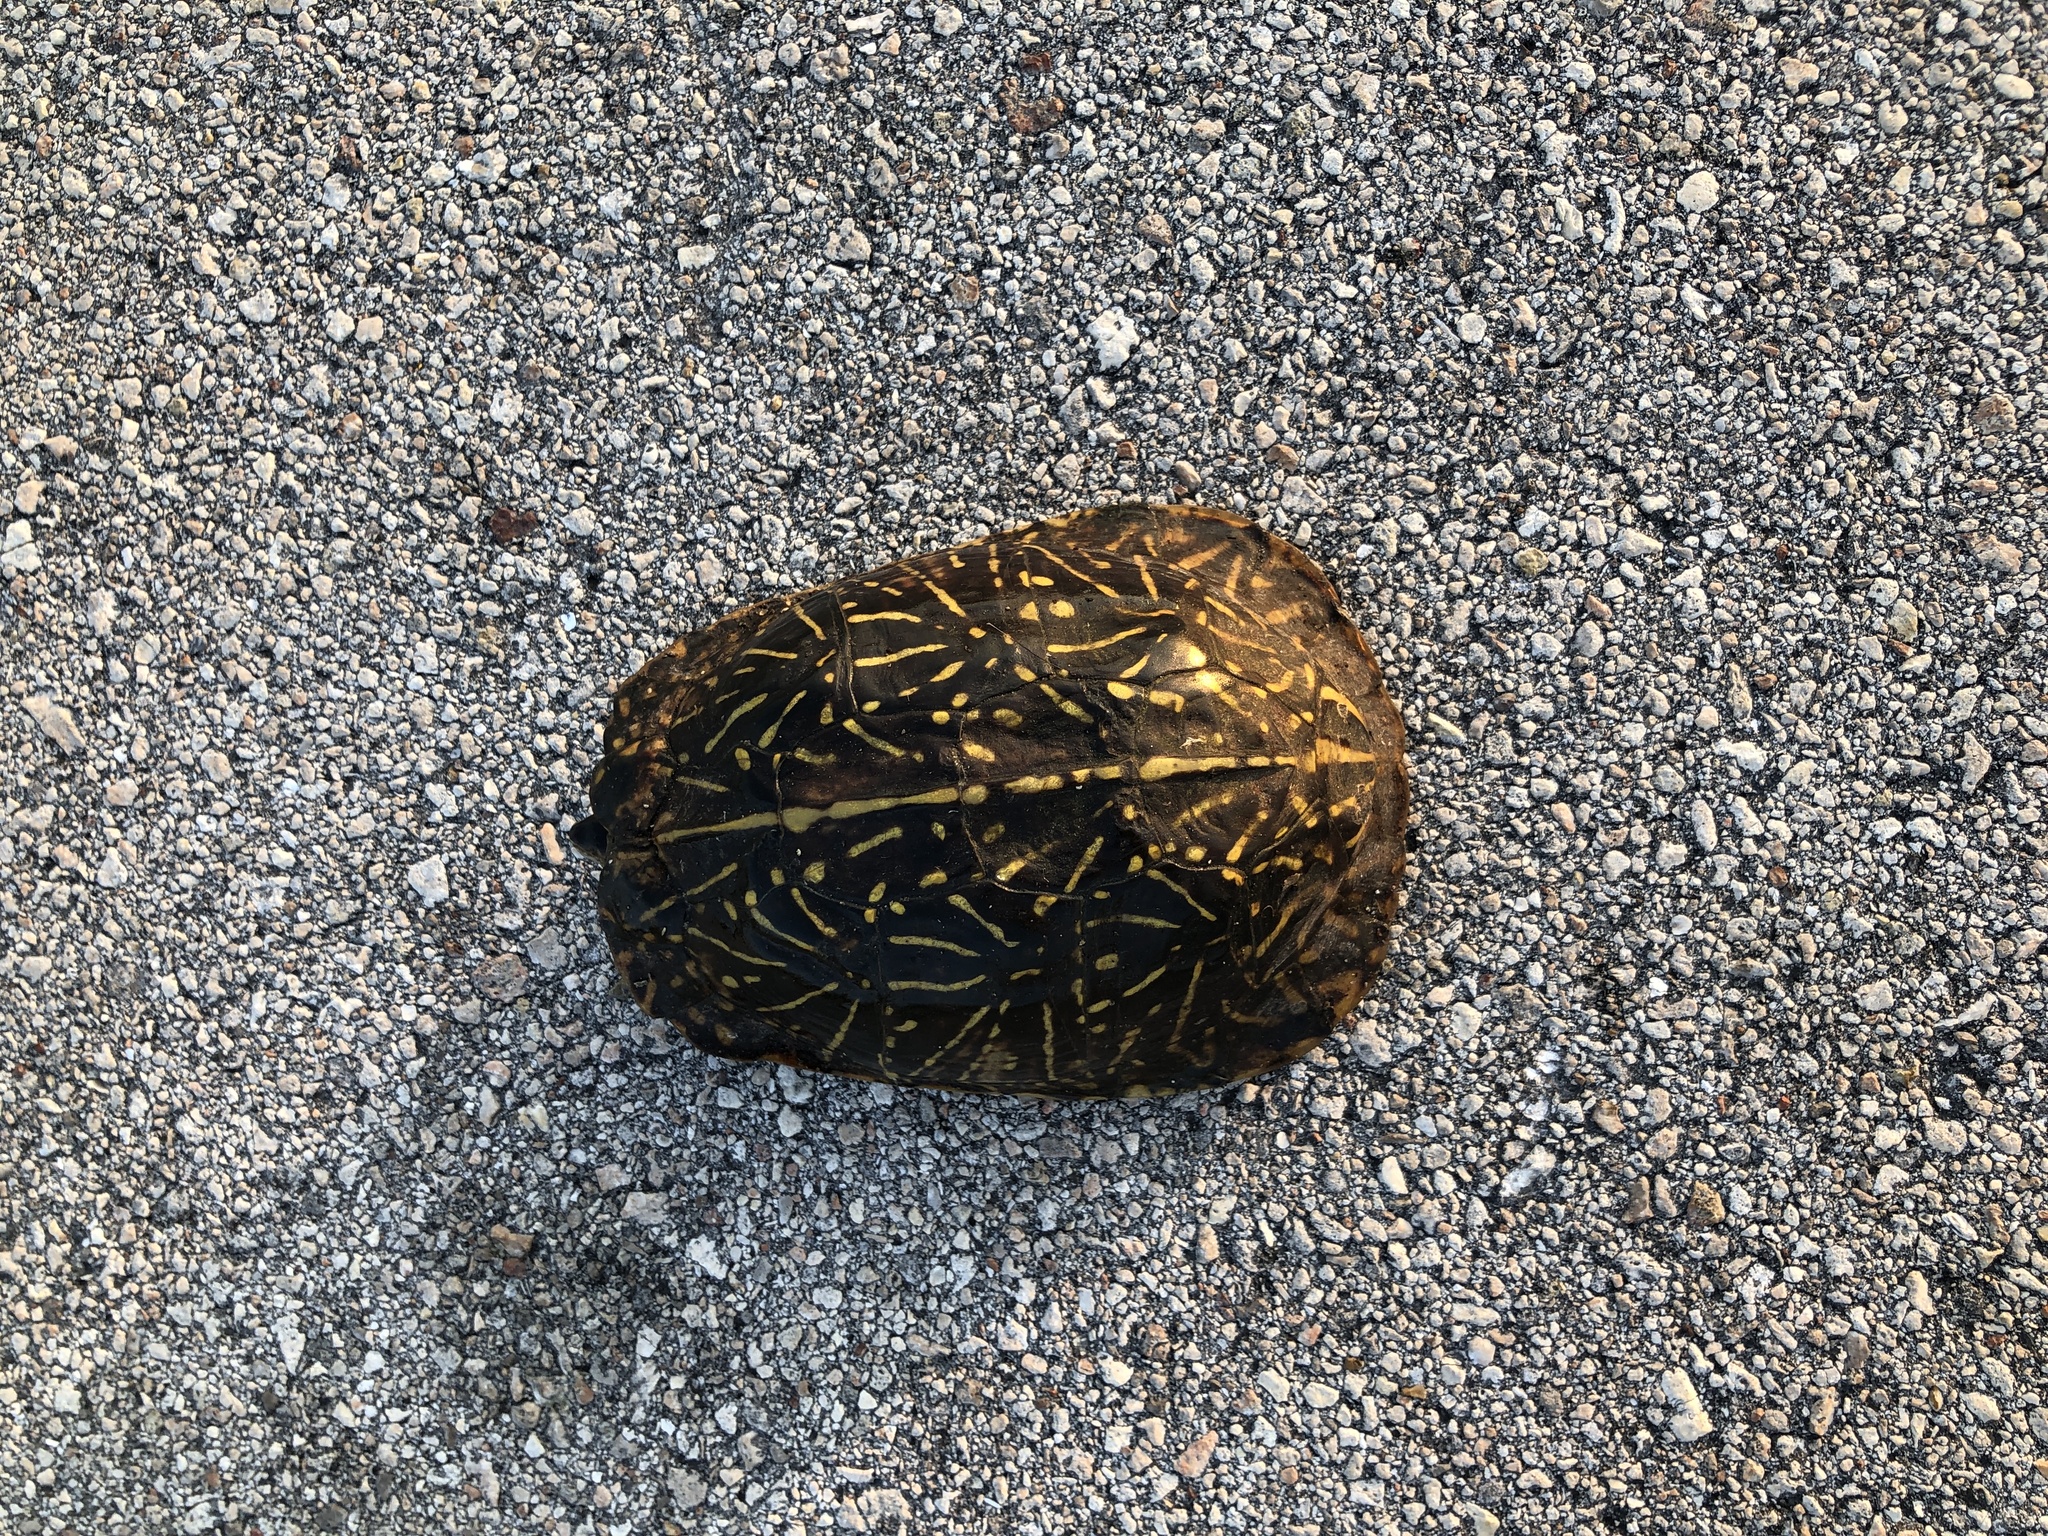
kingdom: Animalia
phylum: Chordata
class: Testudines
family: Emydidae
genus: Terrapene
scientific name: Terrapene carolina
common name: Common box turtle
